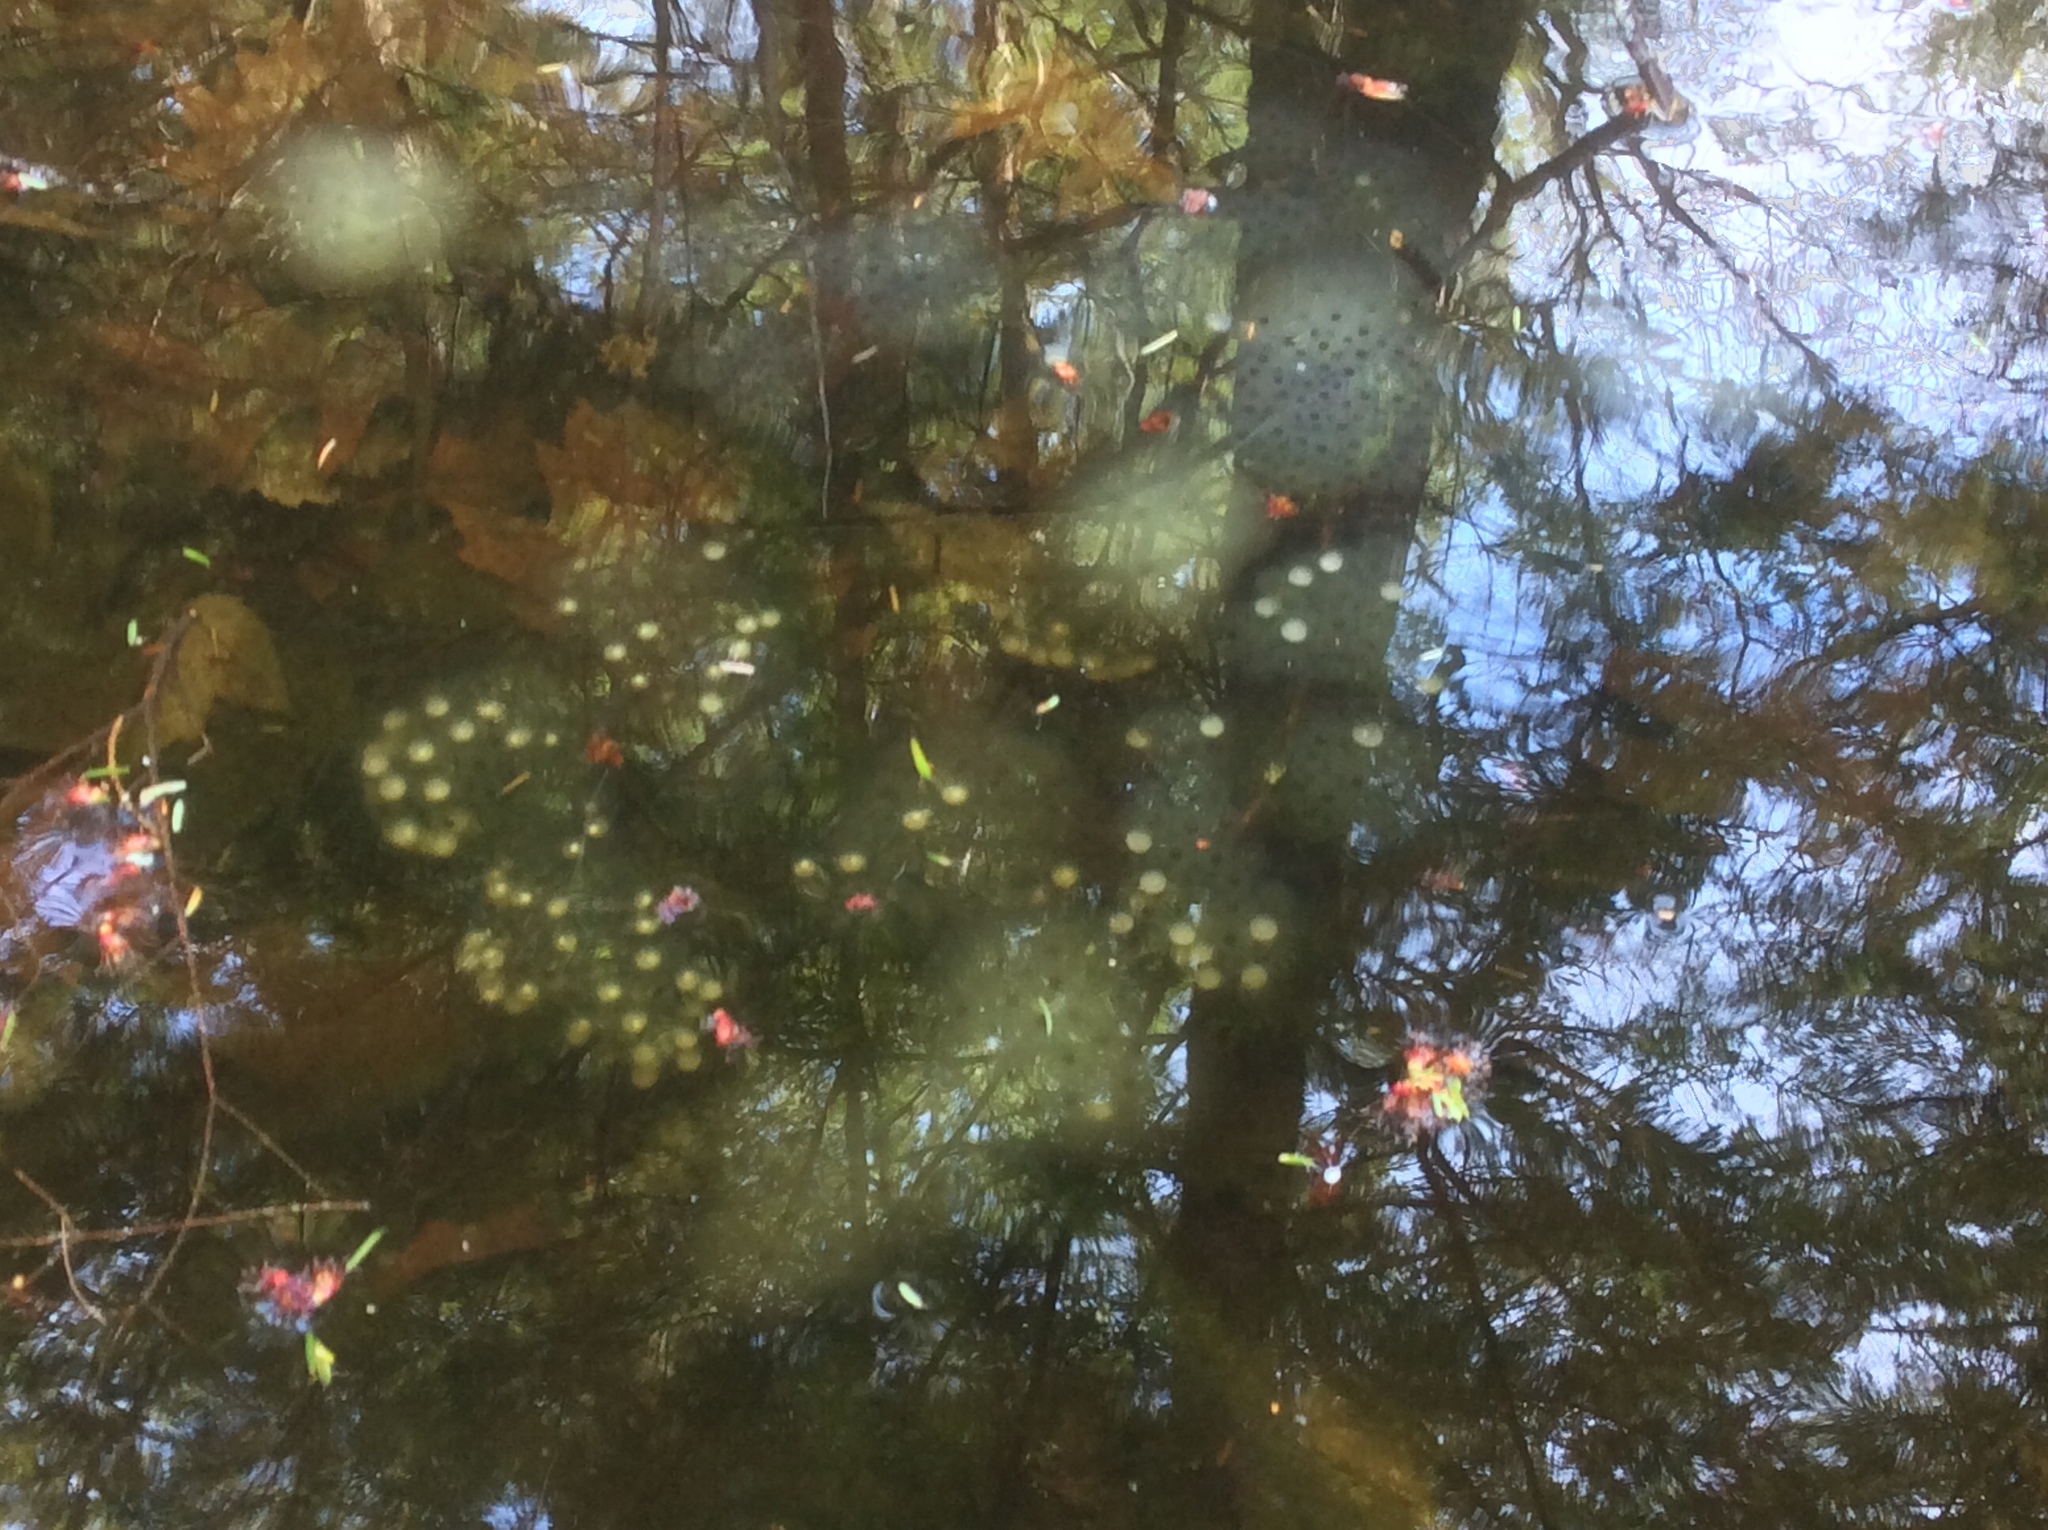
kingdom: Animalia
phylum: Chordata
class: Amphibia
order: Caudata
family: Ambystomatidae
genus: Ambystoma
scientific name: Ambystoma maculatum
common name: Spotted salamander
